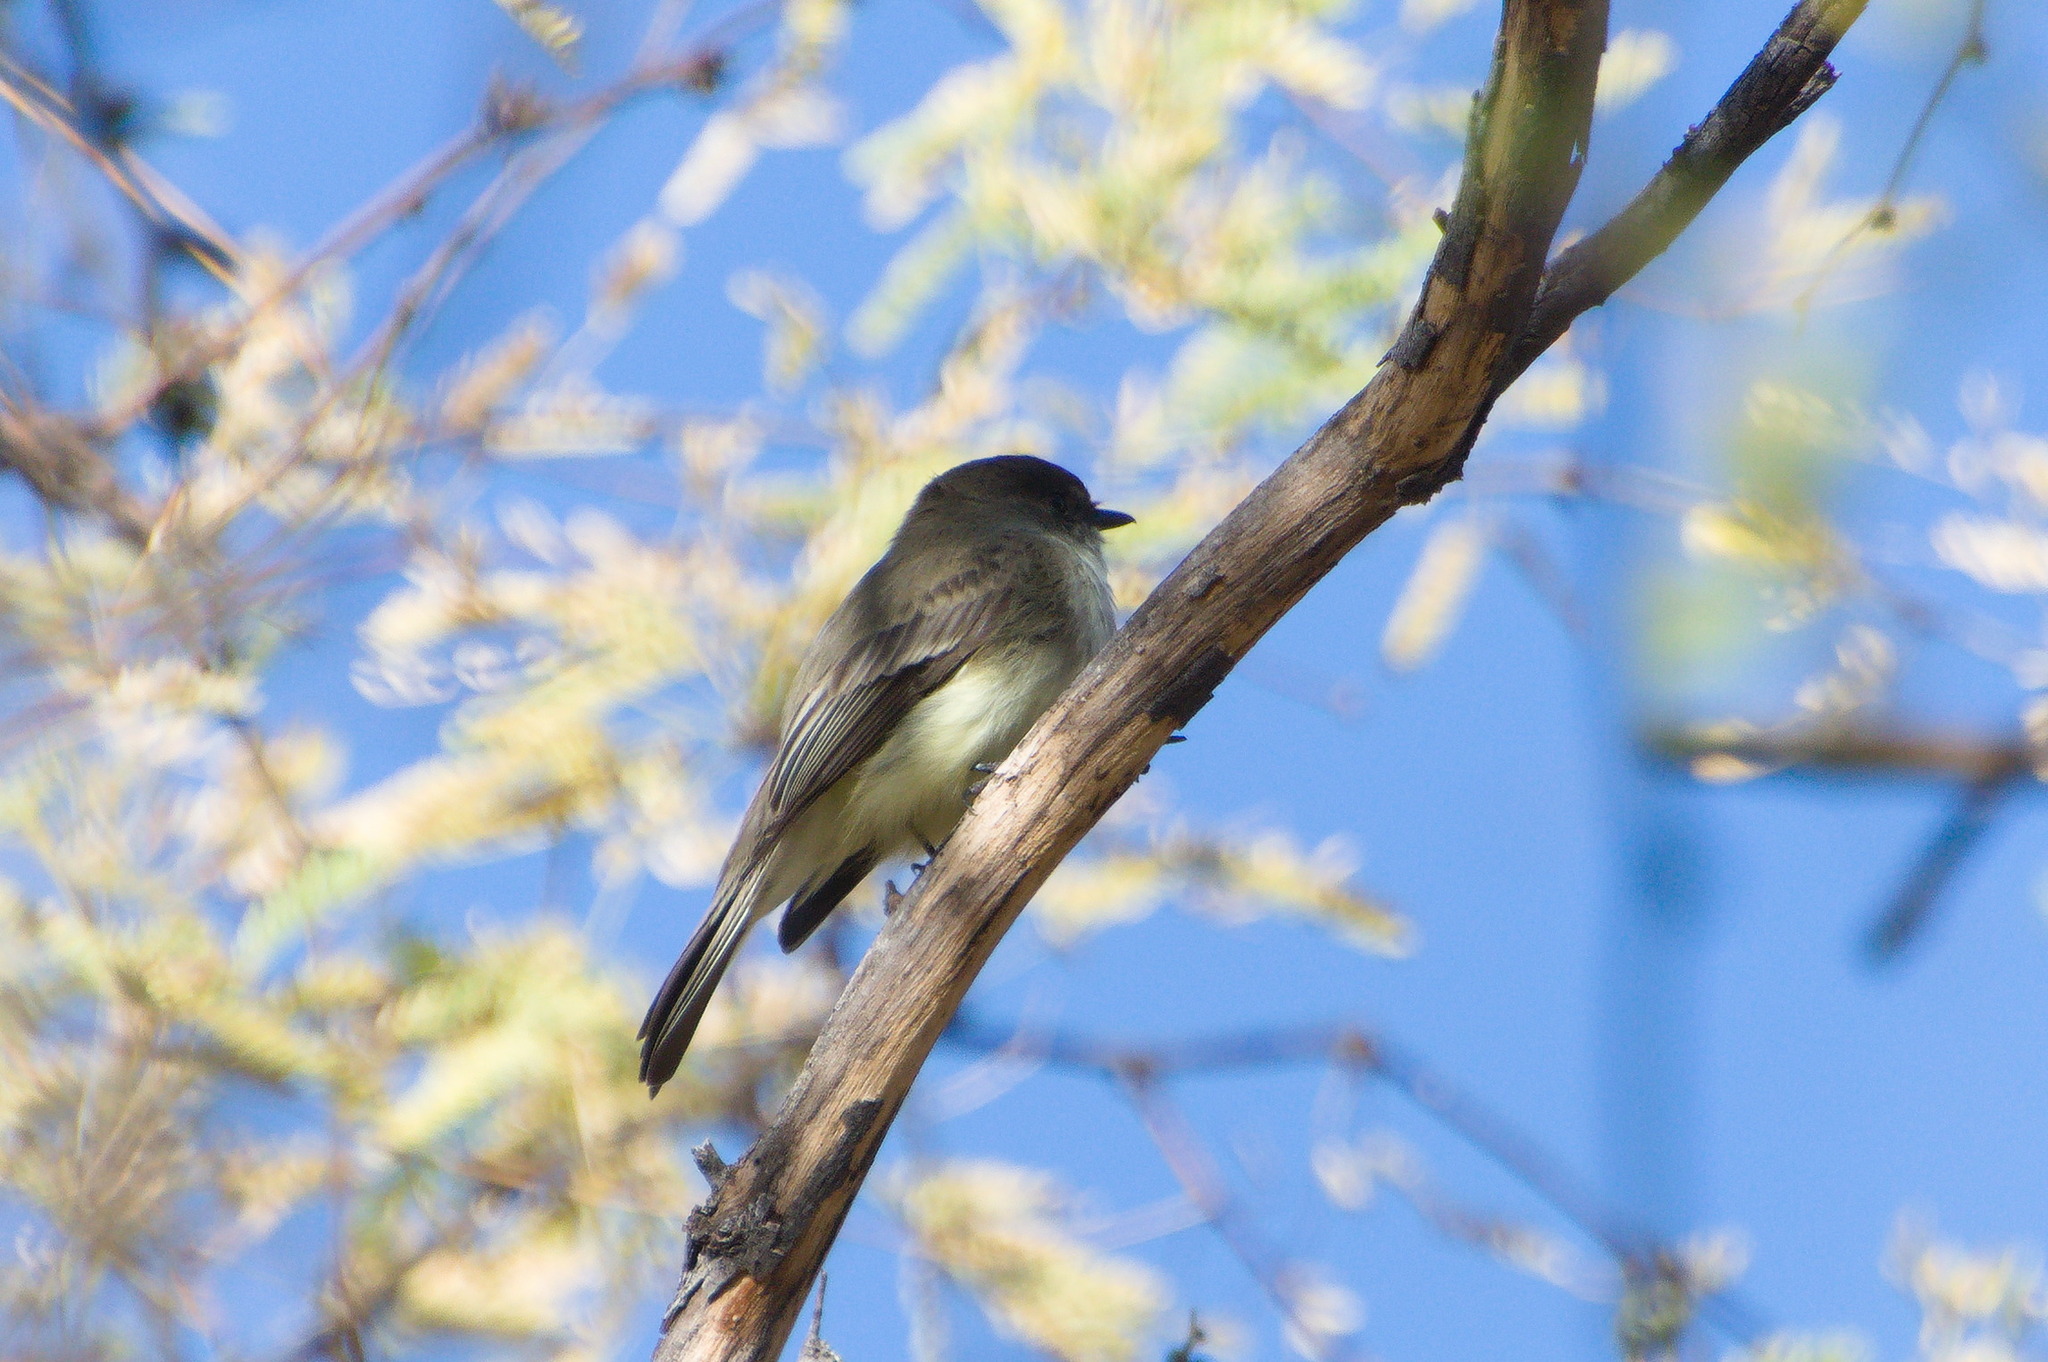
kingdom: Animalia
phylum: Chordata
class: Aves
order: Passeriformes
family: Tyrannidae
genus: Sayornis
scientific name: Sayornis phoebe
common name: Eastern phoebe
